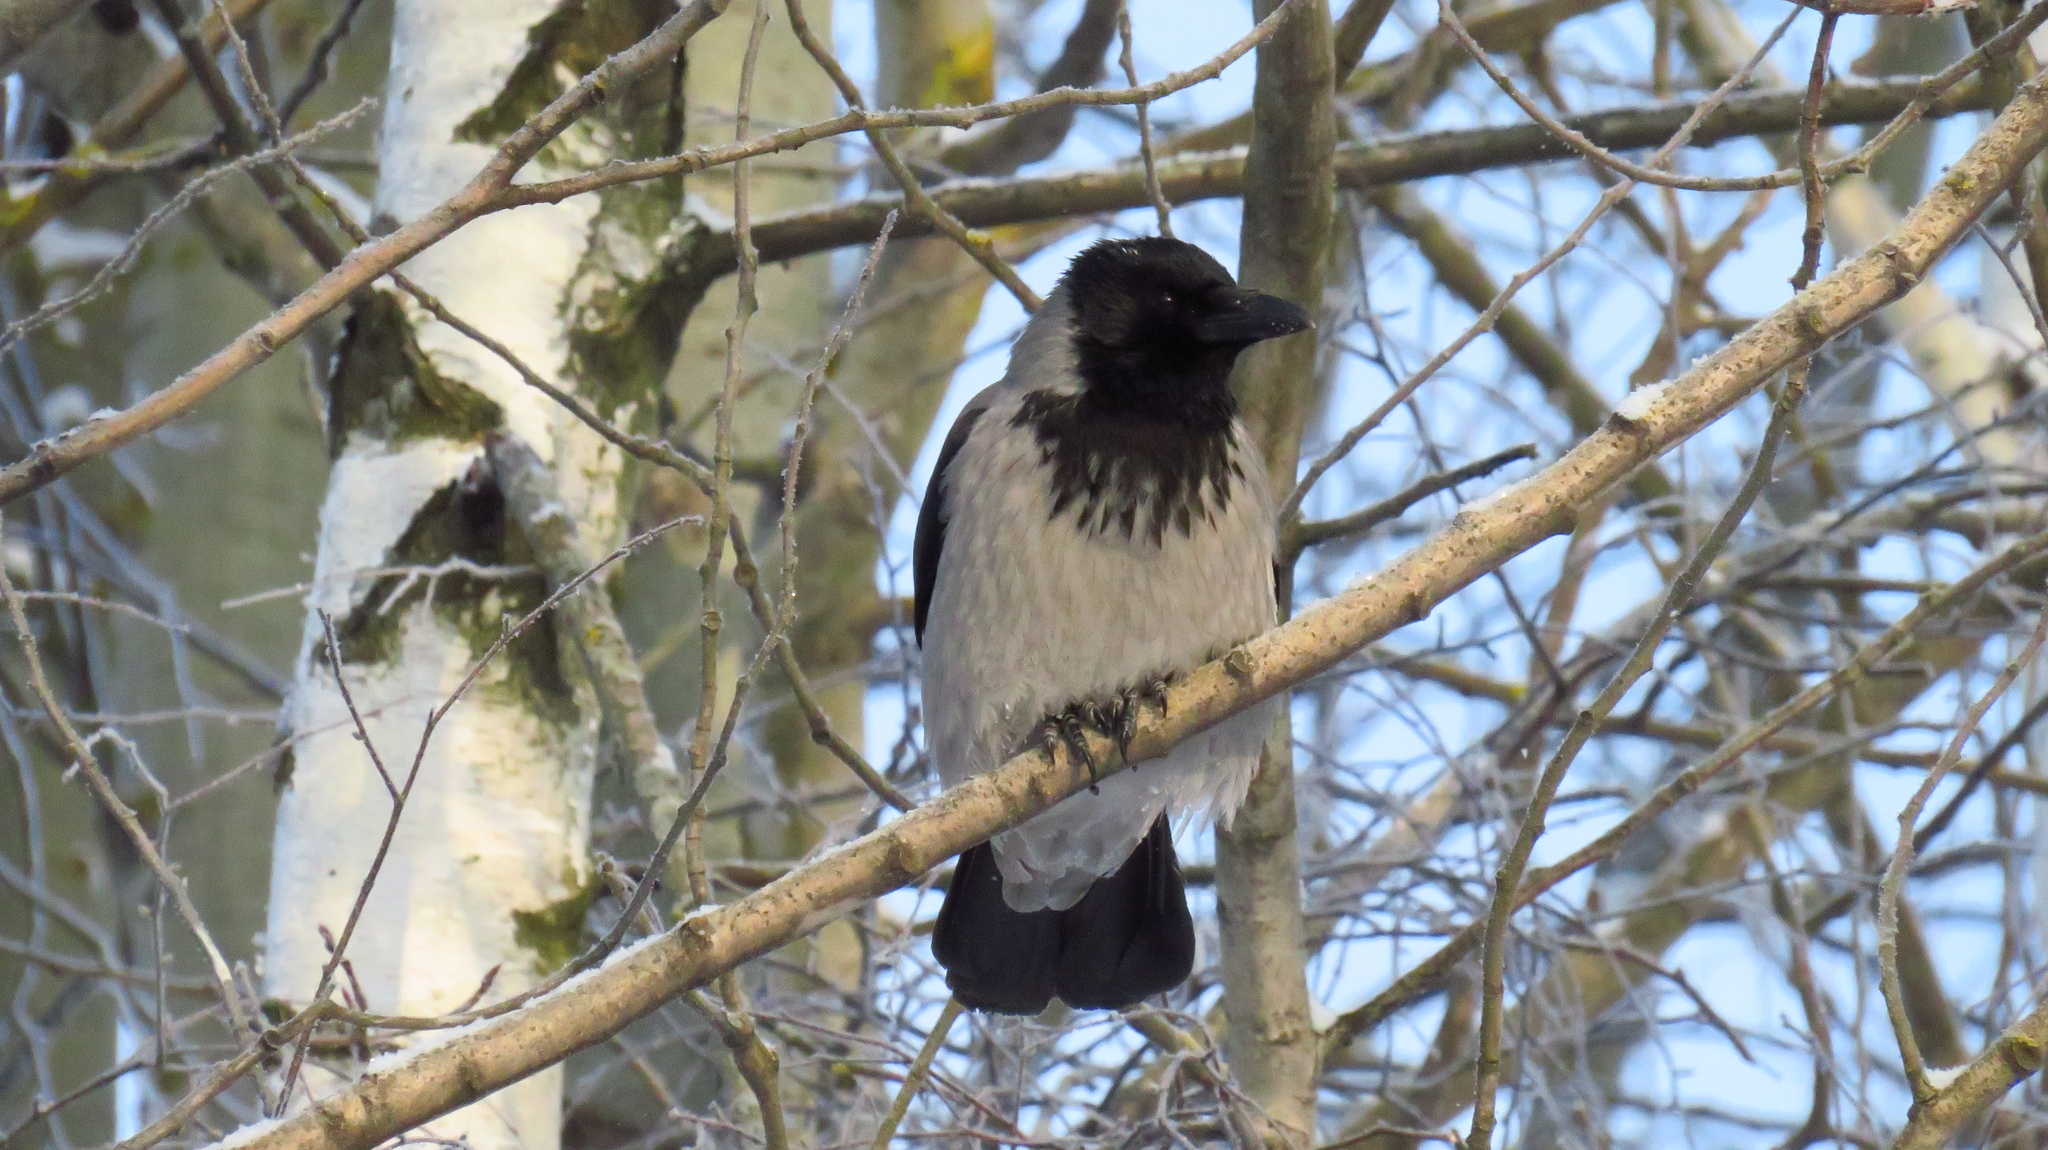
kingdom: Animalia
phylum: Chordata
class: Aves
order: Passeriformes
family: Corvidae
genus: Corvus
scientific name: Corvus cornix
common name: Hooded crow
